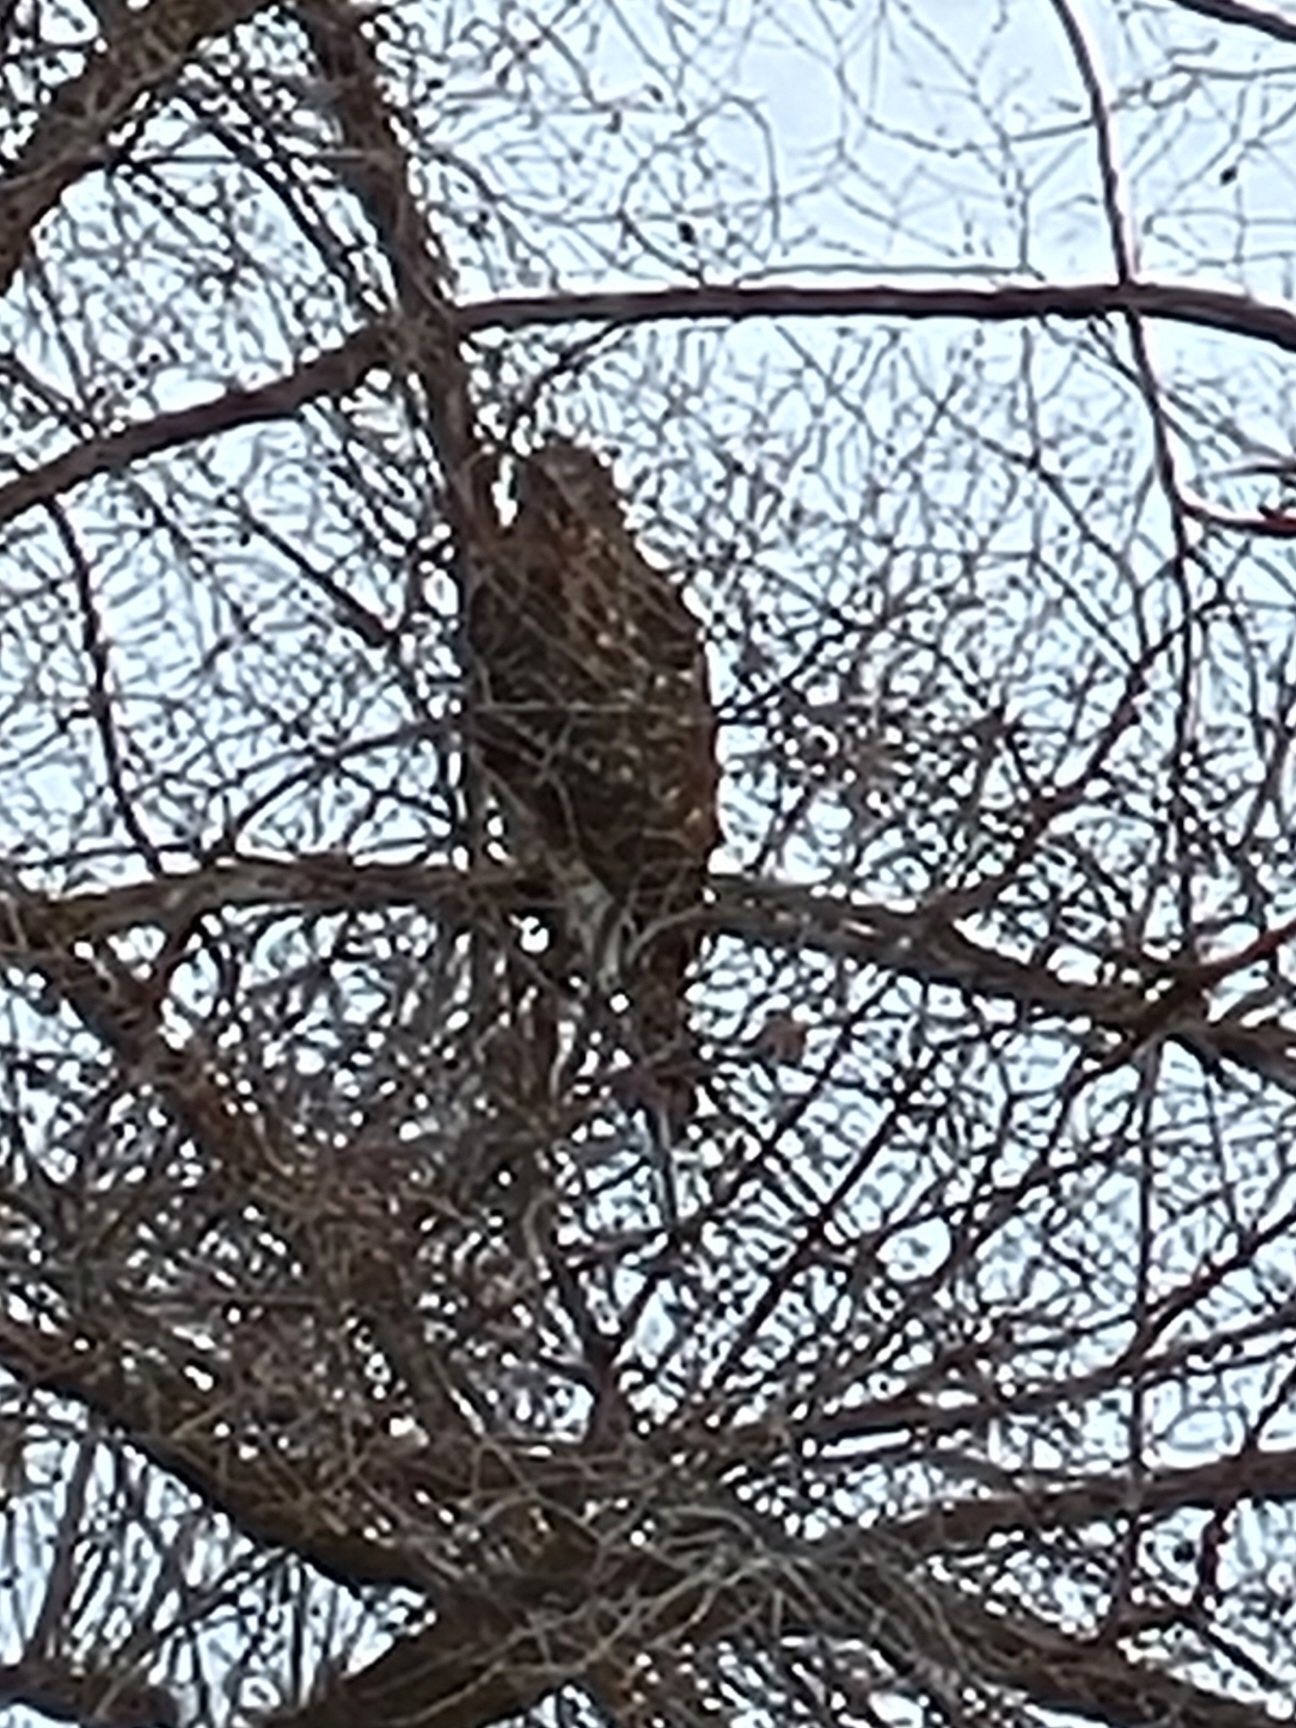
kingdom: Animalia
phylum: Chordata
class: Aves
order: Accipitriformes
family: Accipitridae
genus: Accipiter
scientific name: Accipiter gentilis
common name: Northern goshawk
